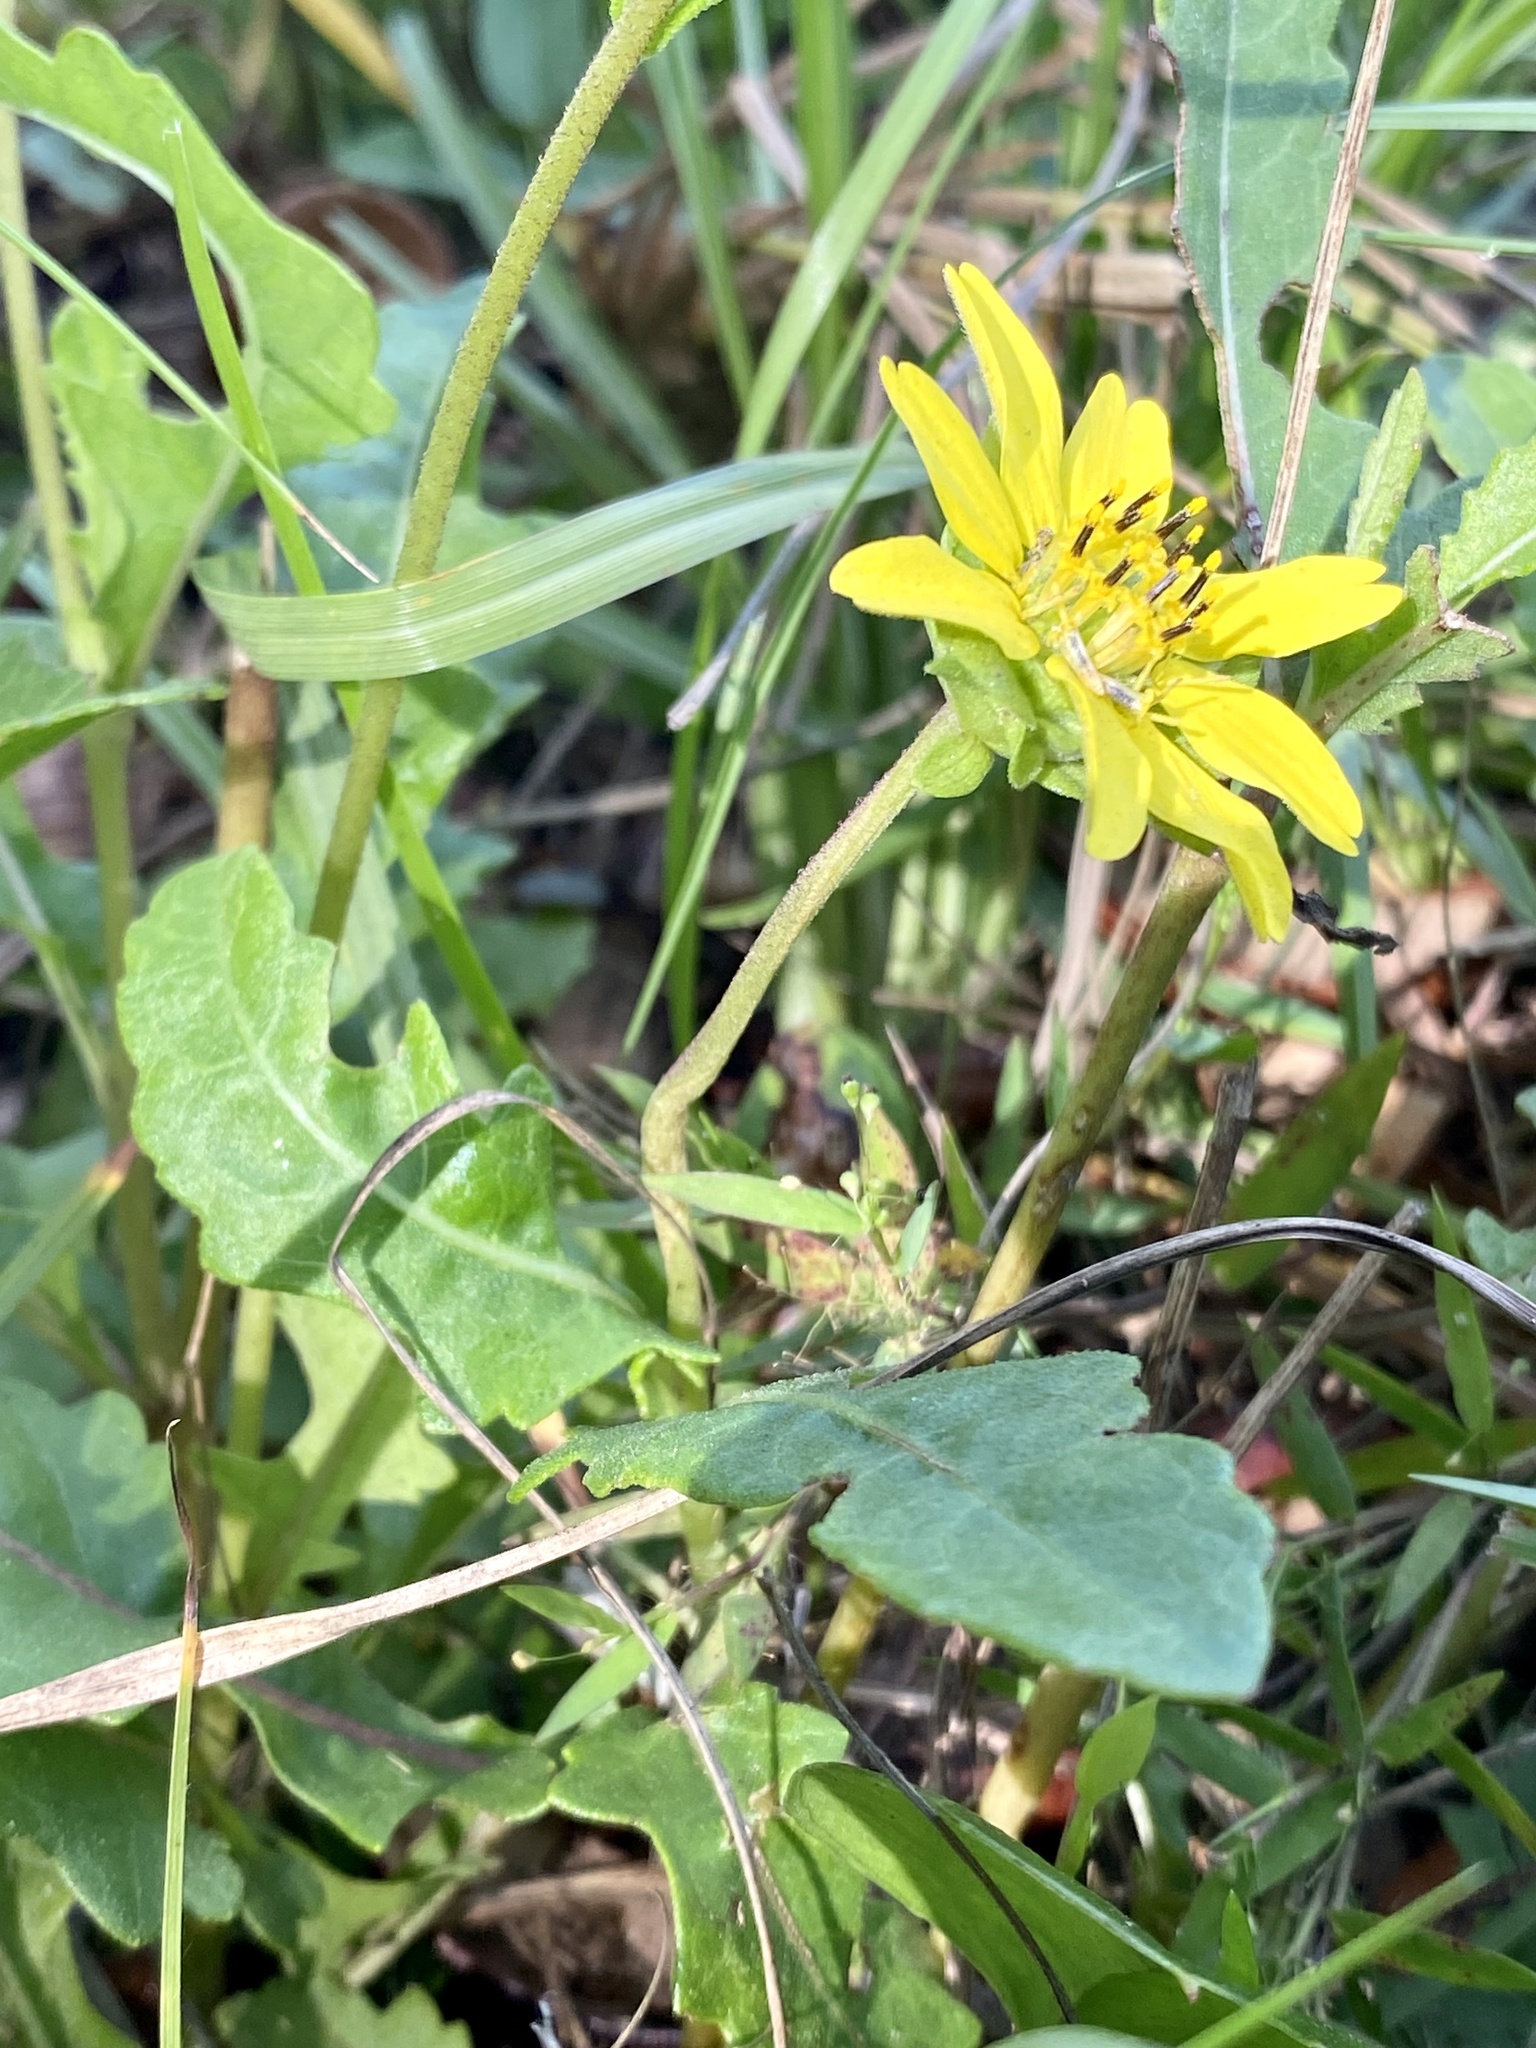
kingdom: Plantae
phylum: Tracheophyta
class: Magnoliopsida
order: Asterales
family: Asteraceae
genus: Berlandiera
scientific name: Berlandiera subacaulis
